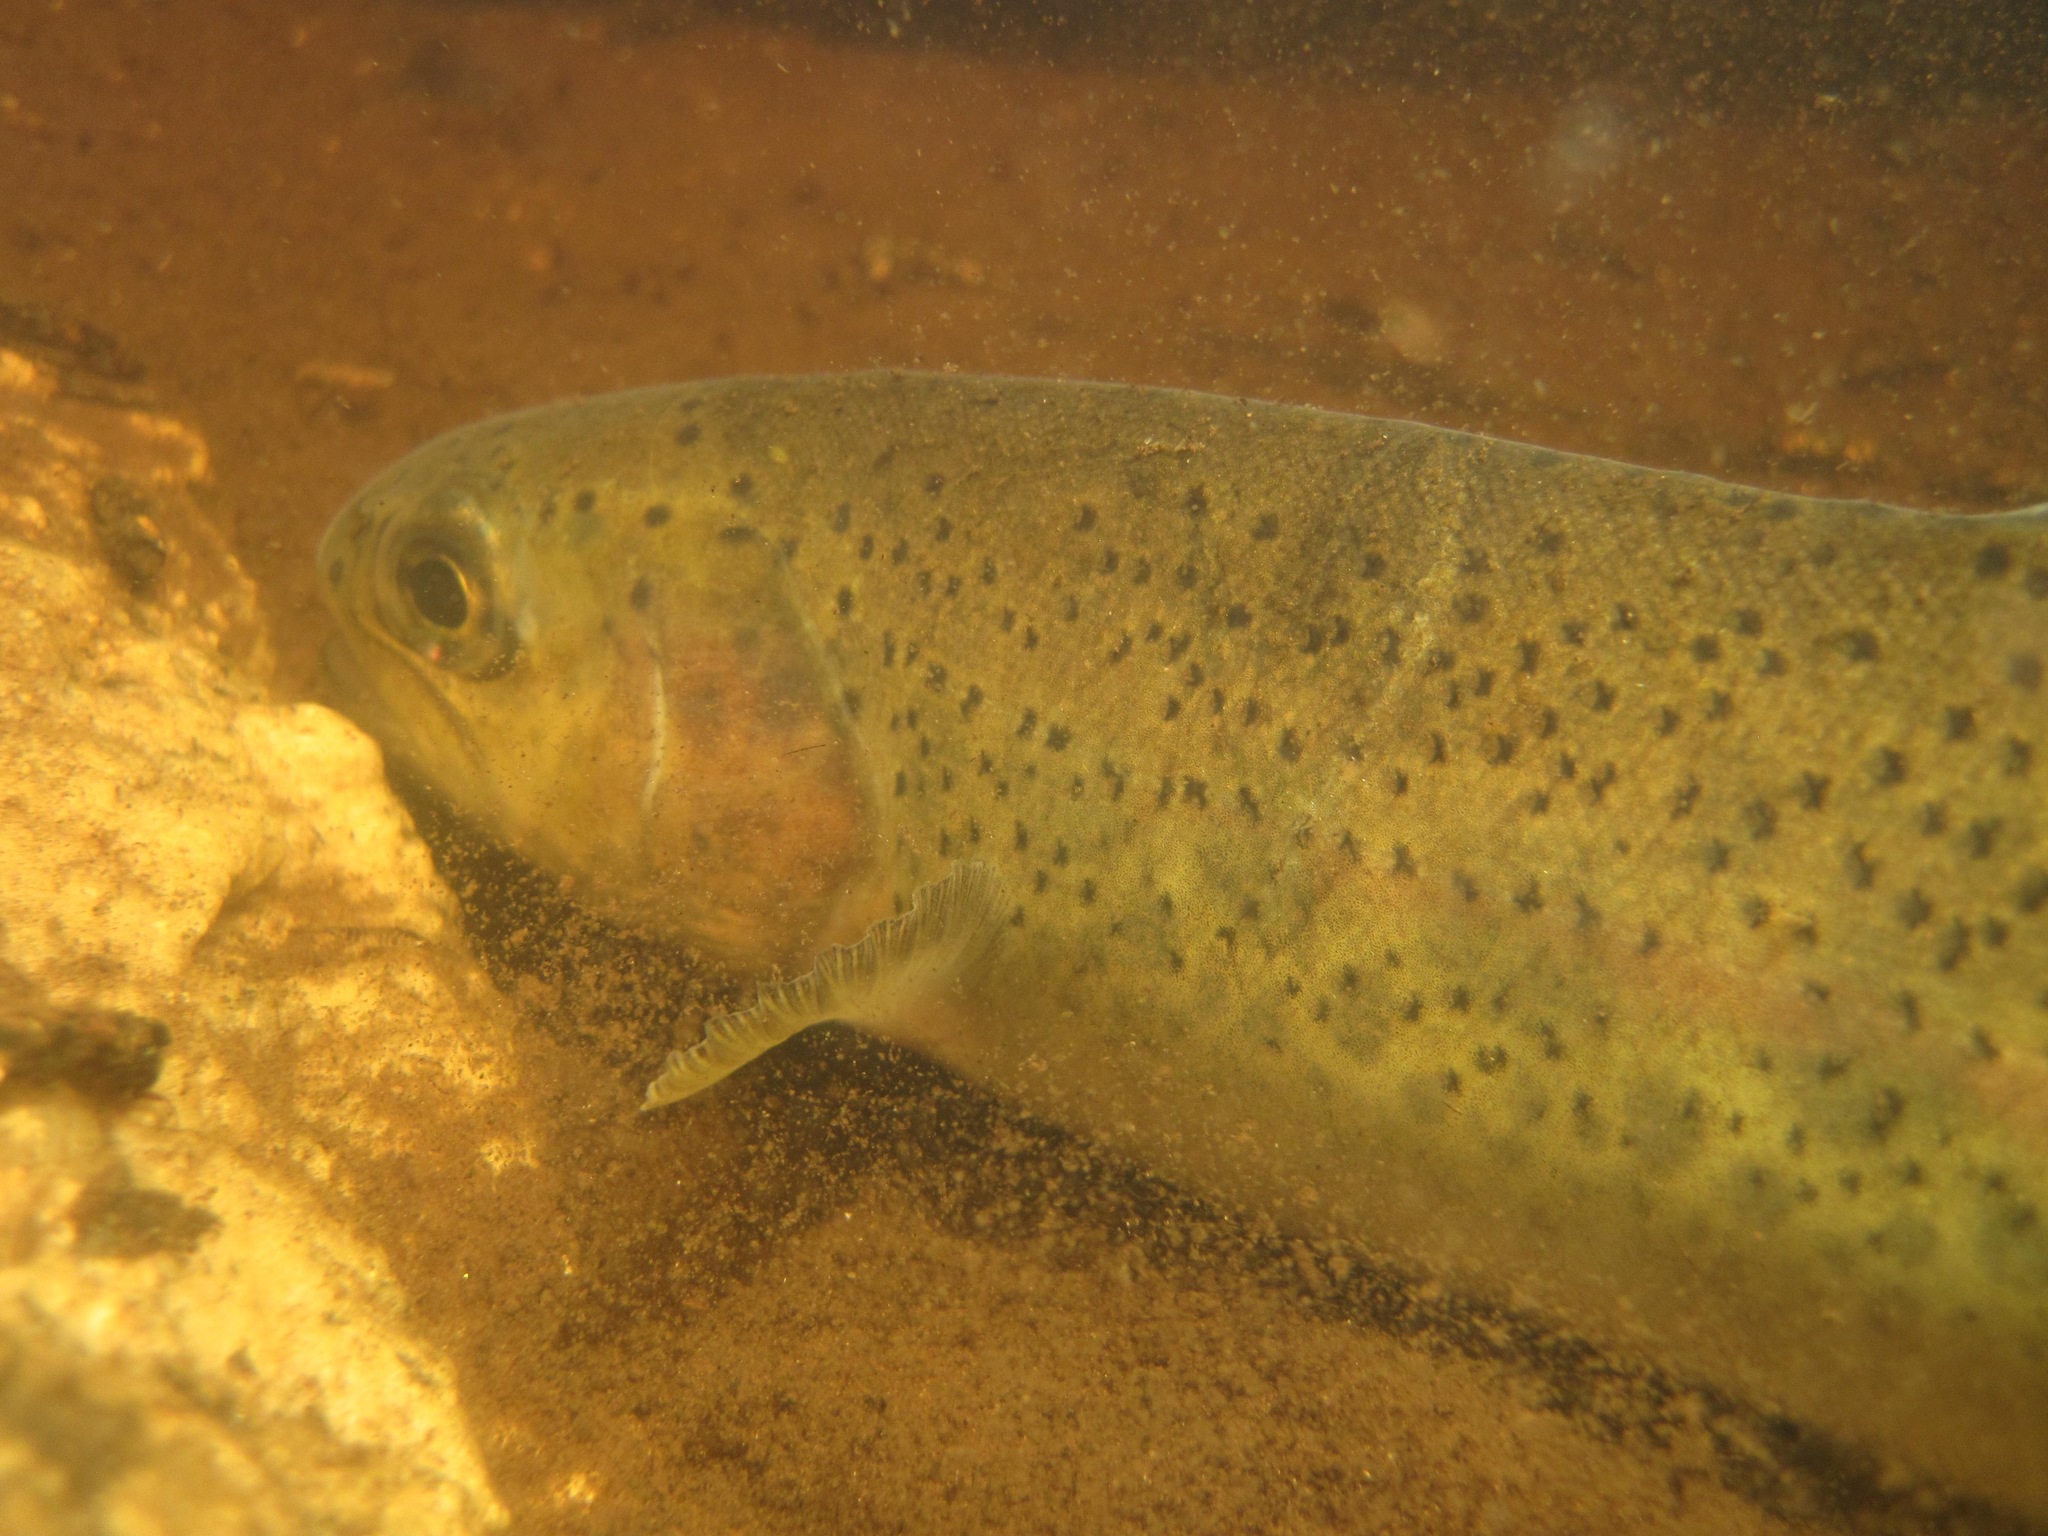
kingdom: Animalia
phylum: Chordata
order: Salmoniformes
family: Salmonidae
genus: Oncorhynchus
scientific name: Oncorhynchus mykiss
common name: Rainbow trout
